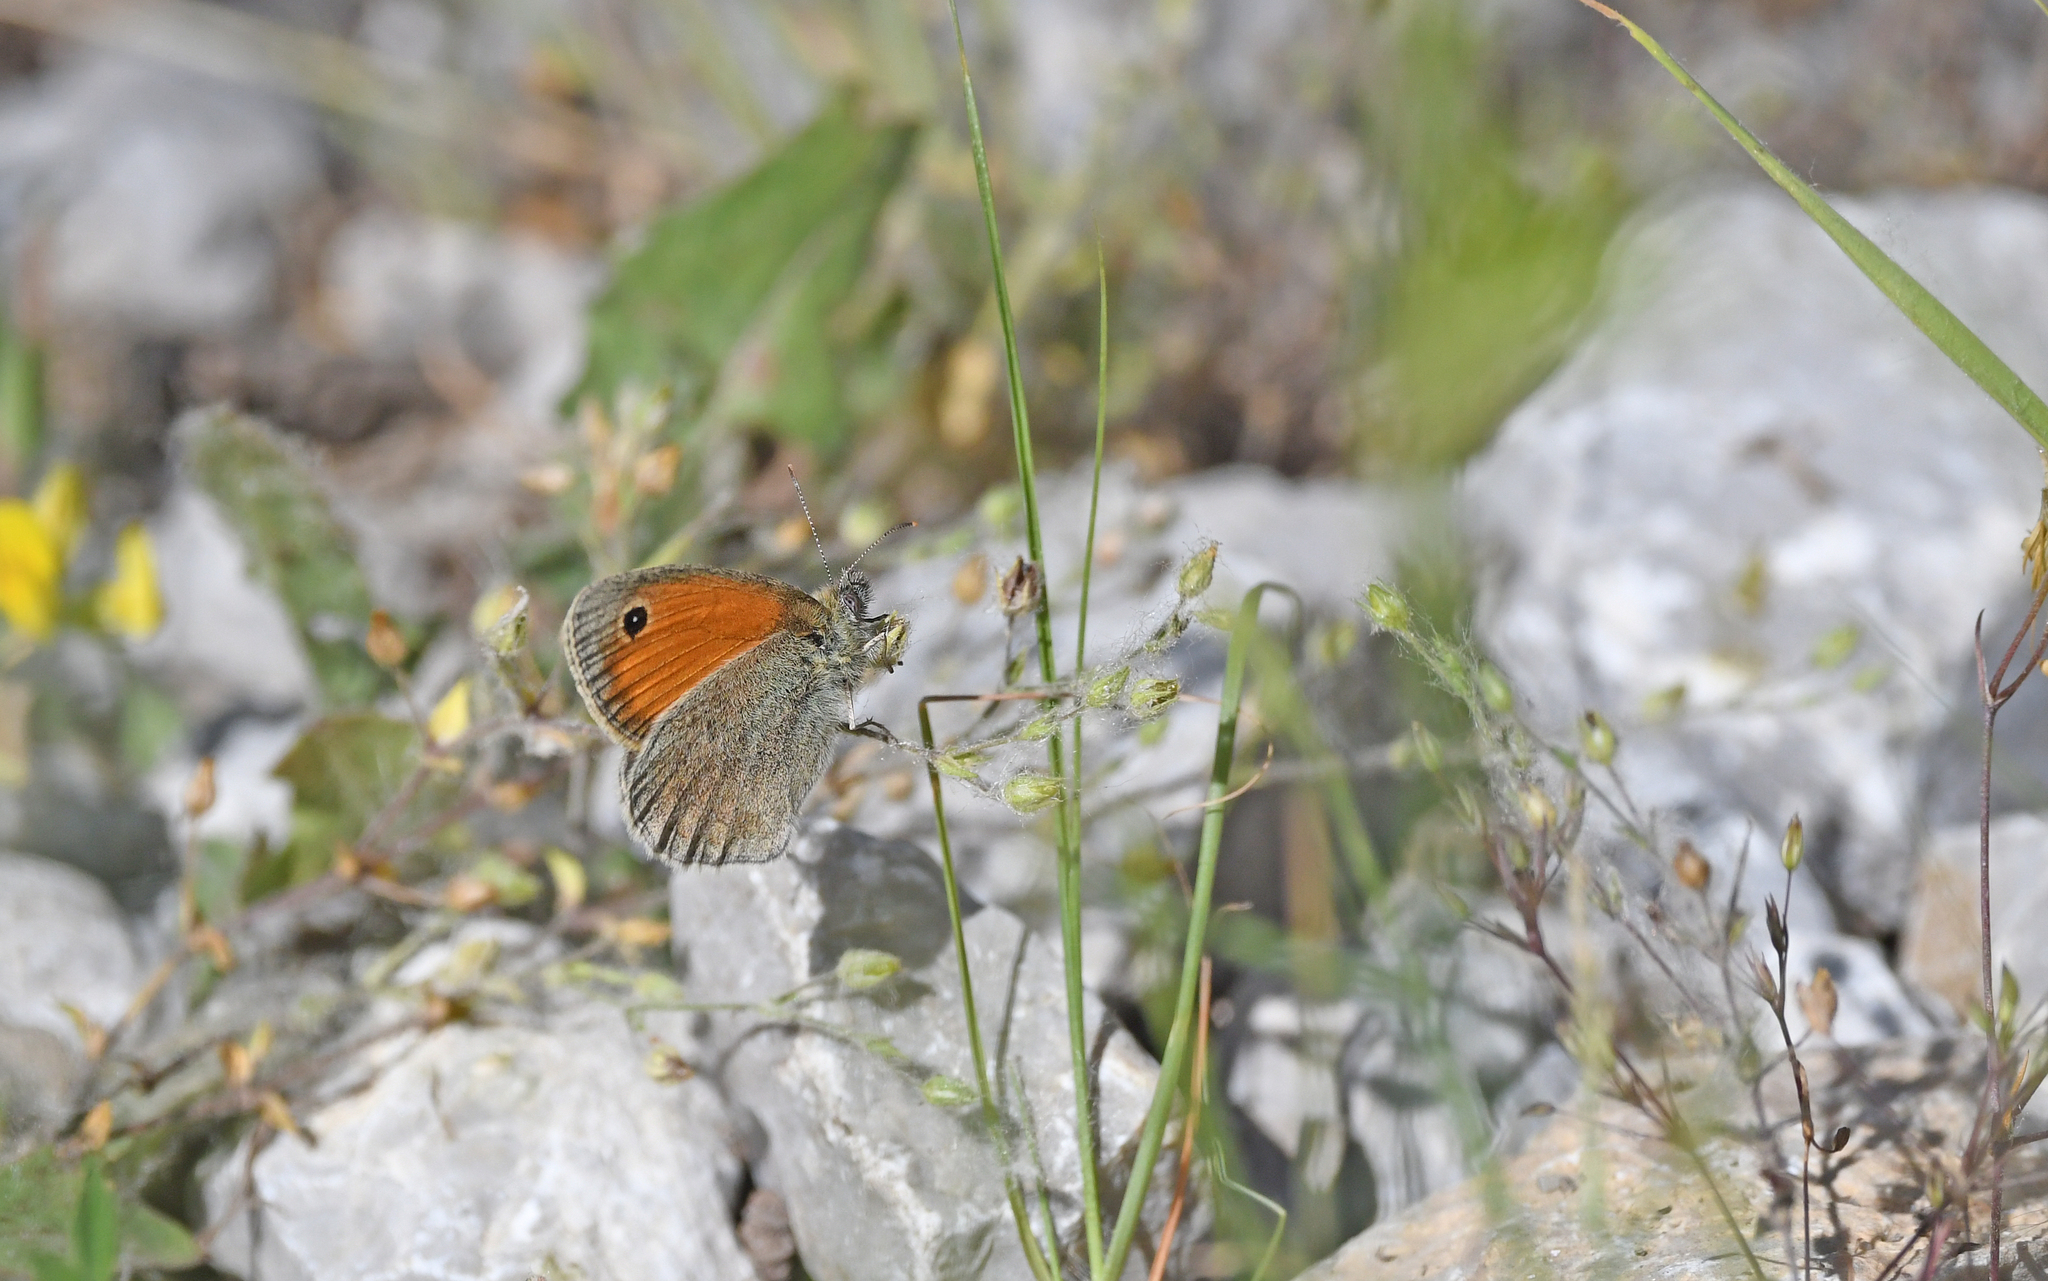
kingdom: Animalia
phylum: Arthropoda
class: Insecta
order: Lepidoptera
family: Nymphalidae
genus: Coenonympha
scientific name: Coenonympha pamphilus
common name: Small heath
